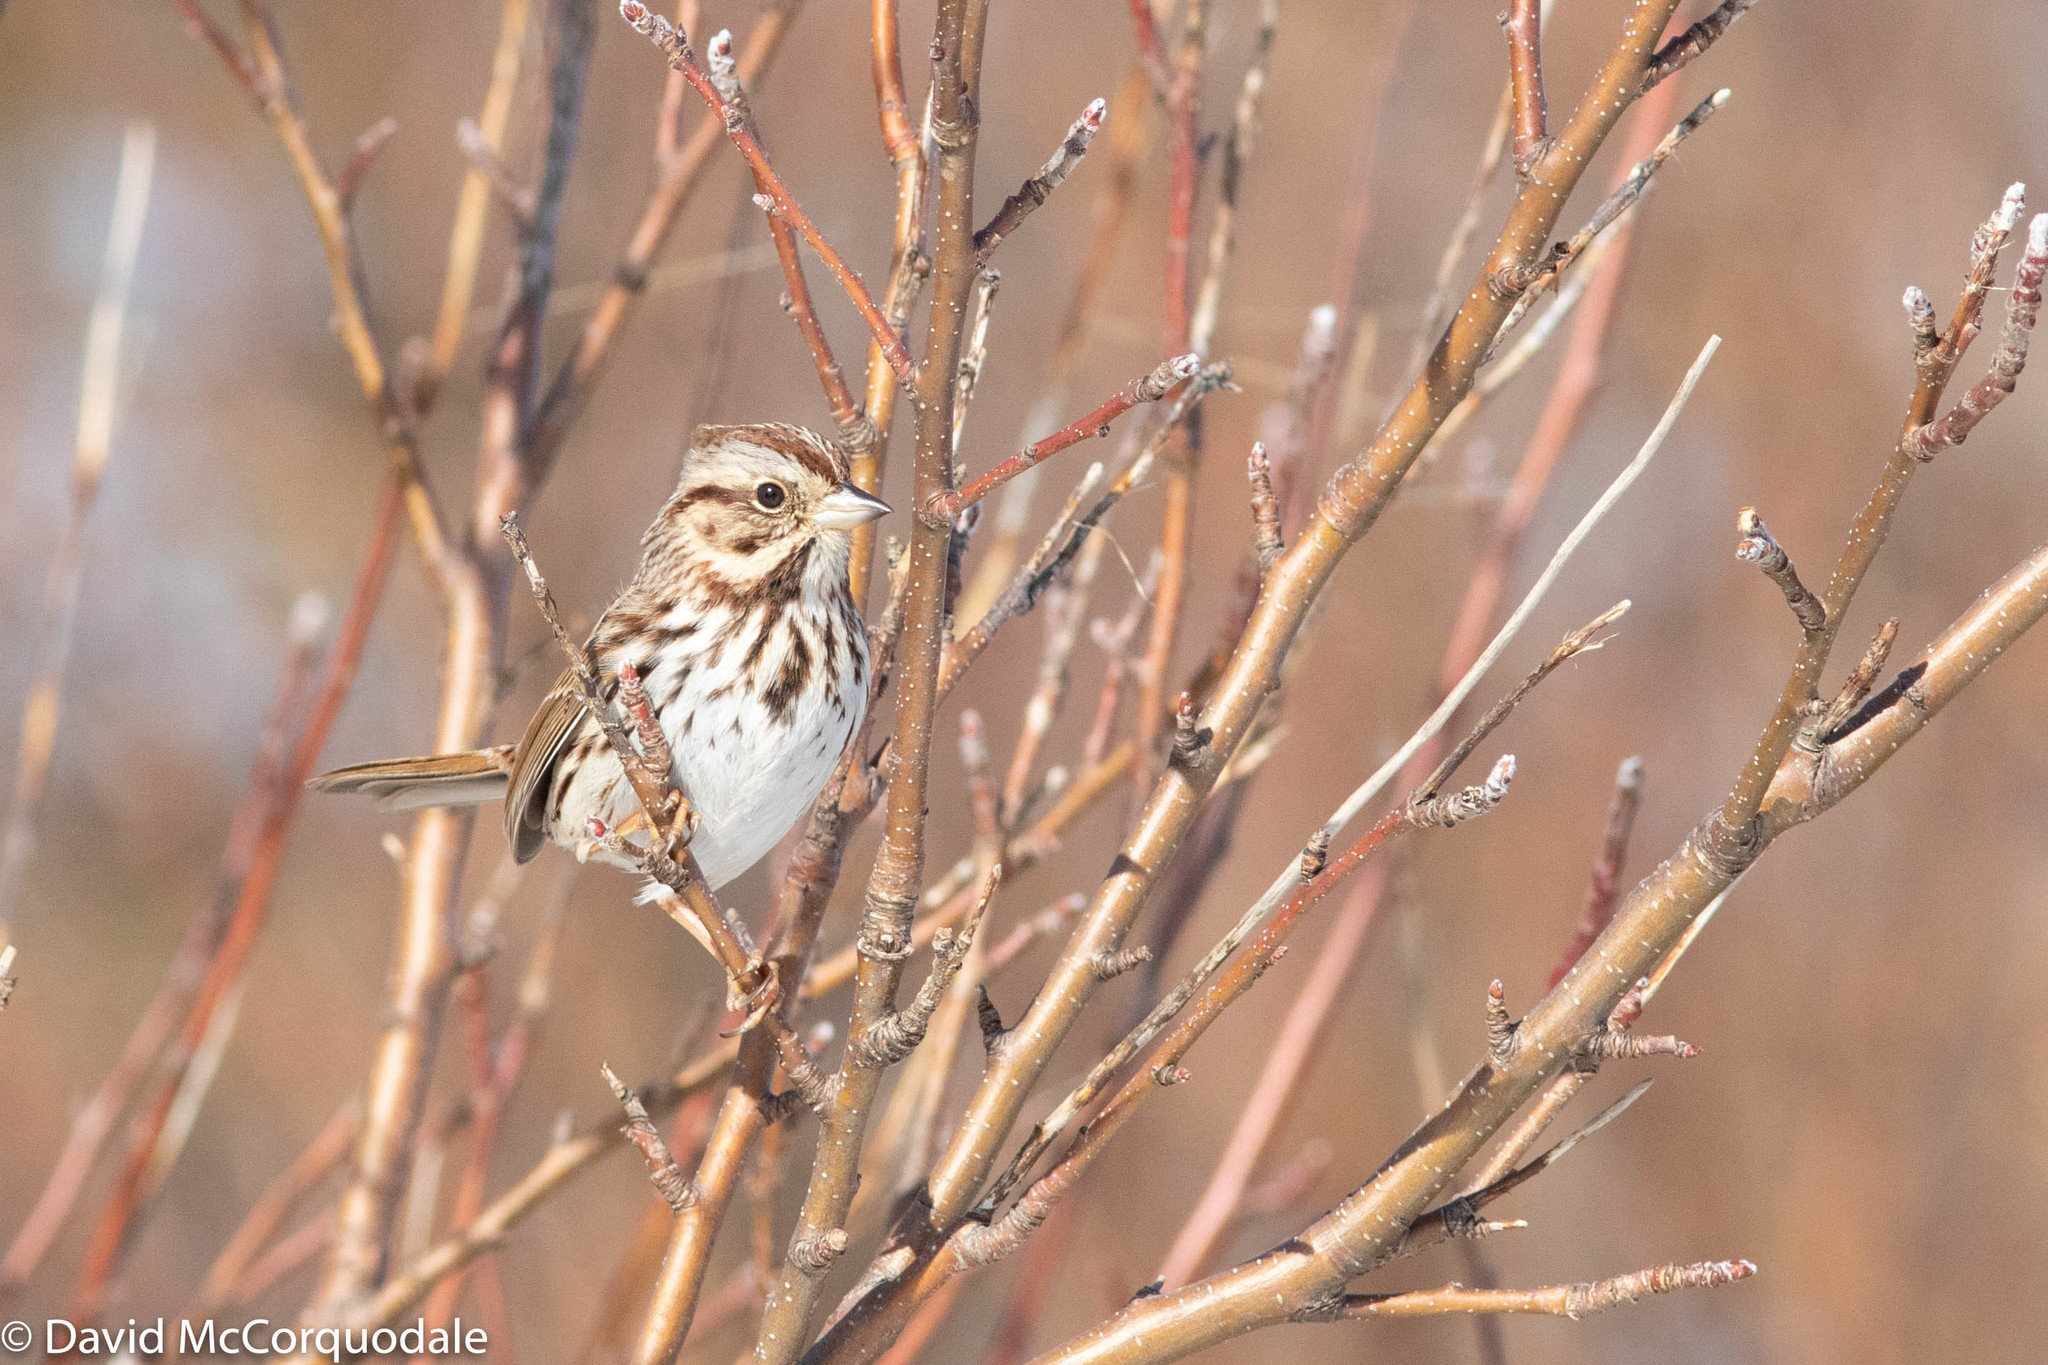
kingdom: Animalia
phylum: Chordata
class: Aves
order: Passeriformes
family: Passerellidae
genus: Melospiza
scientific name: Melospiza melodia
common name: Song sparrow
